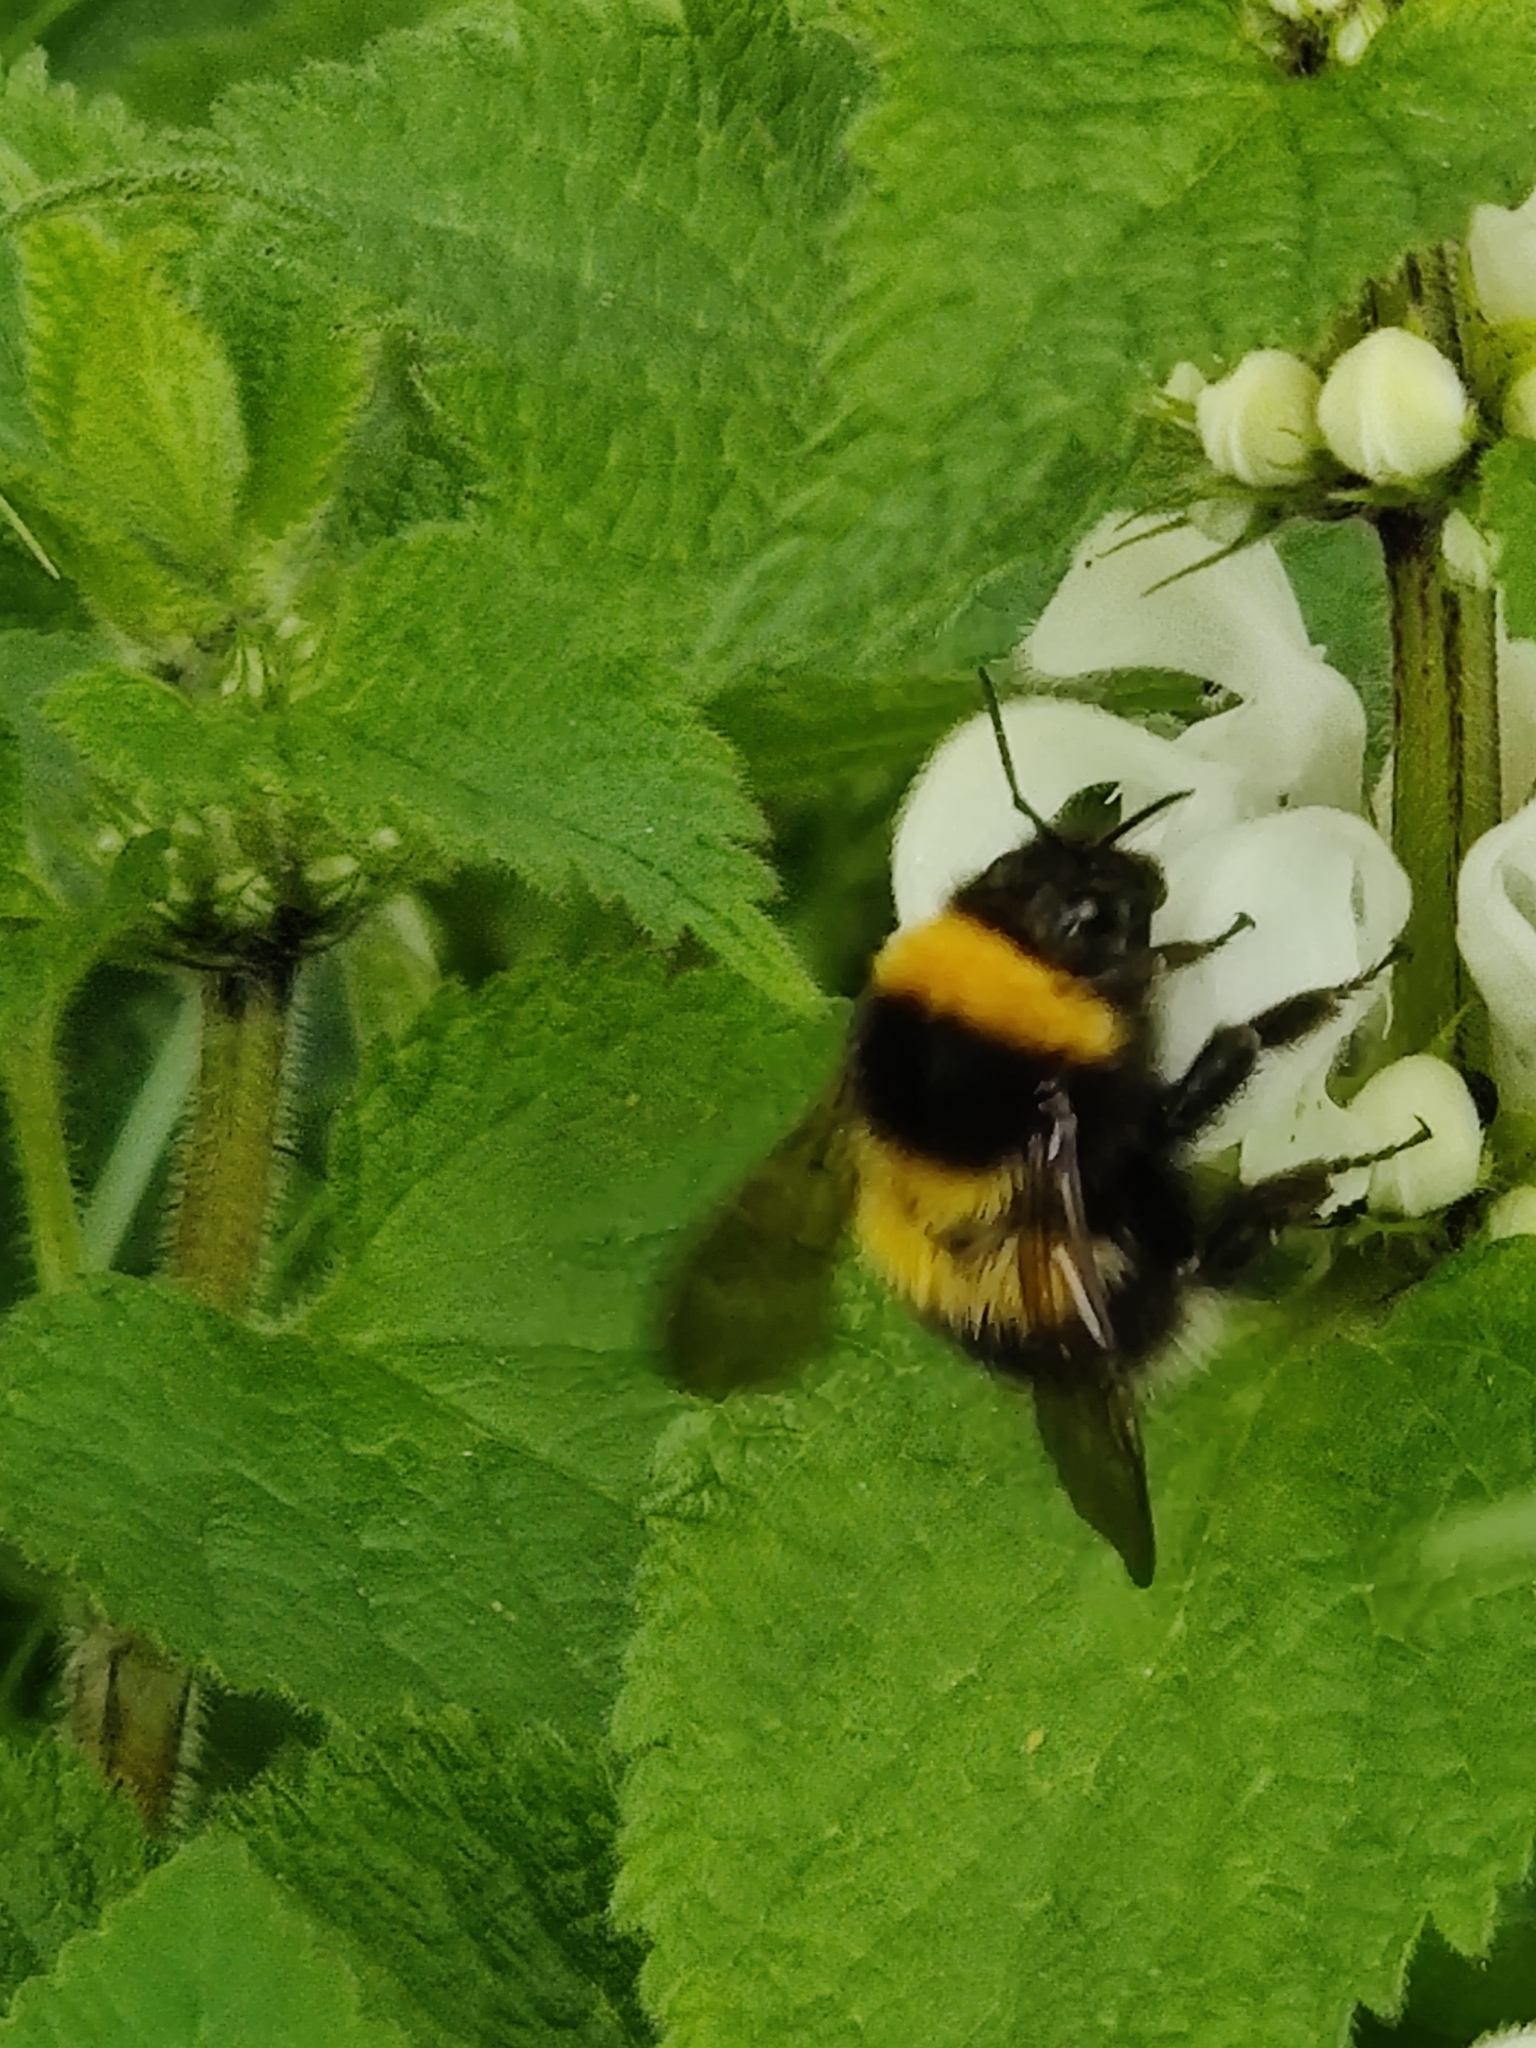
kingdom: Animalia
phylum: Arthropoda
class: Insecta
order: Hymenoptera
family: Apidae
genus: Bombus
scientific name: Bombus hortorum
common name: Garden bumblebee
